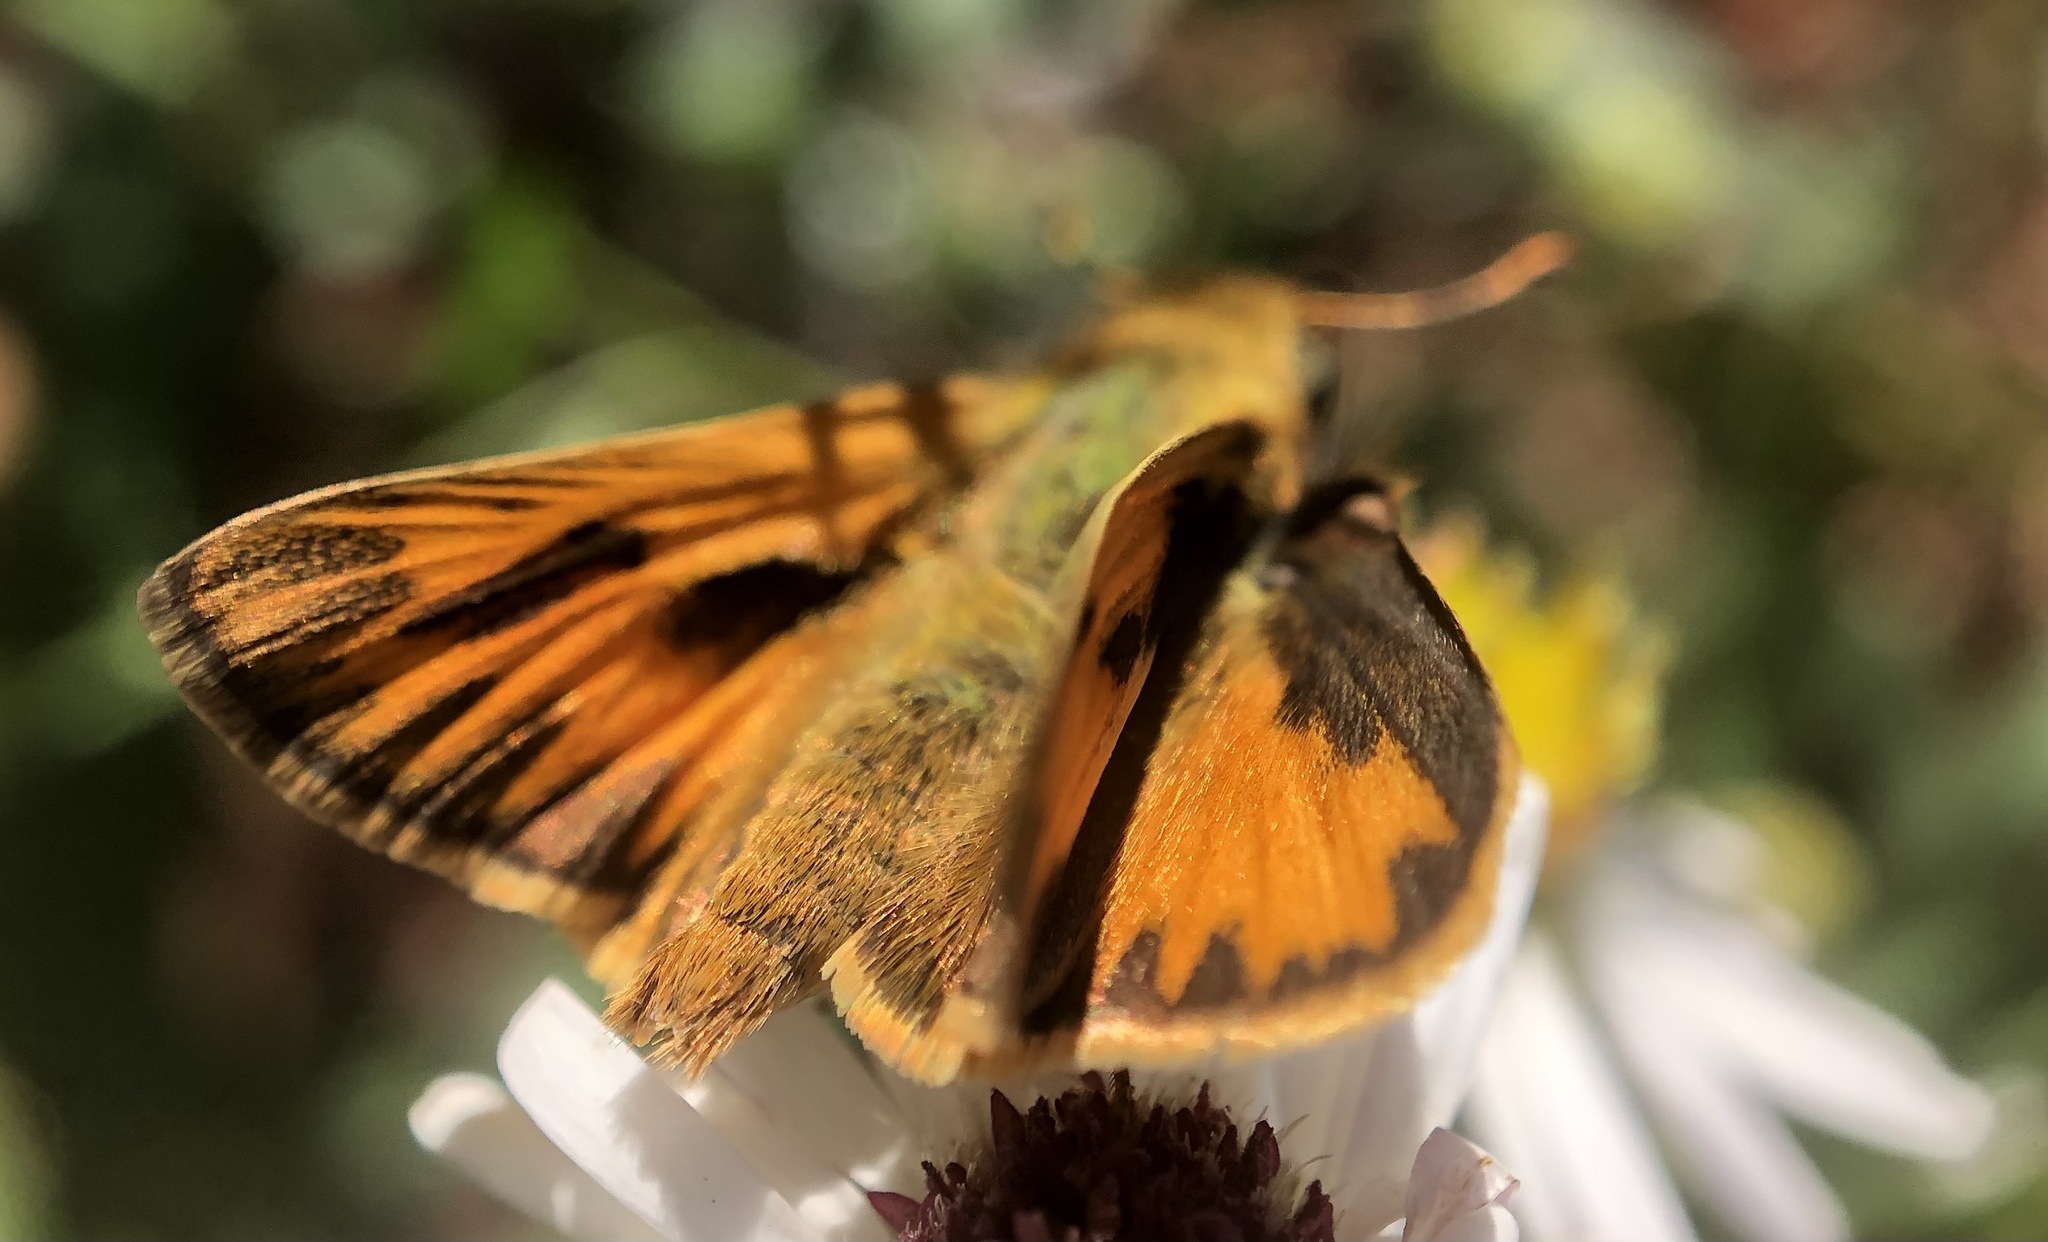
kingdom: Animalia
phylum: Arthropoda
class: Insecta
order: Lepidoptera
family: Hesperiidae
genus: Hylephila
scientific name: Hylephila phyleus
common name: Fiery skipper
